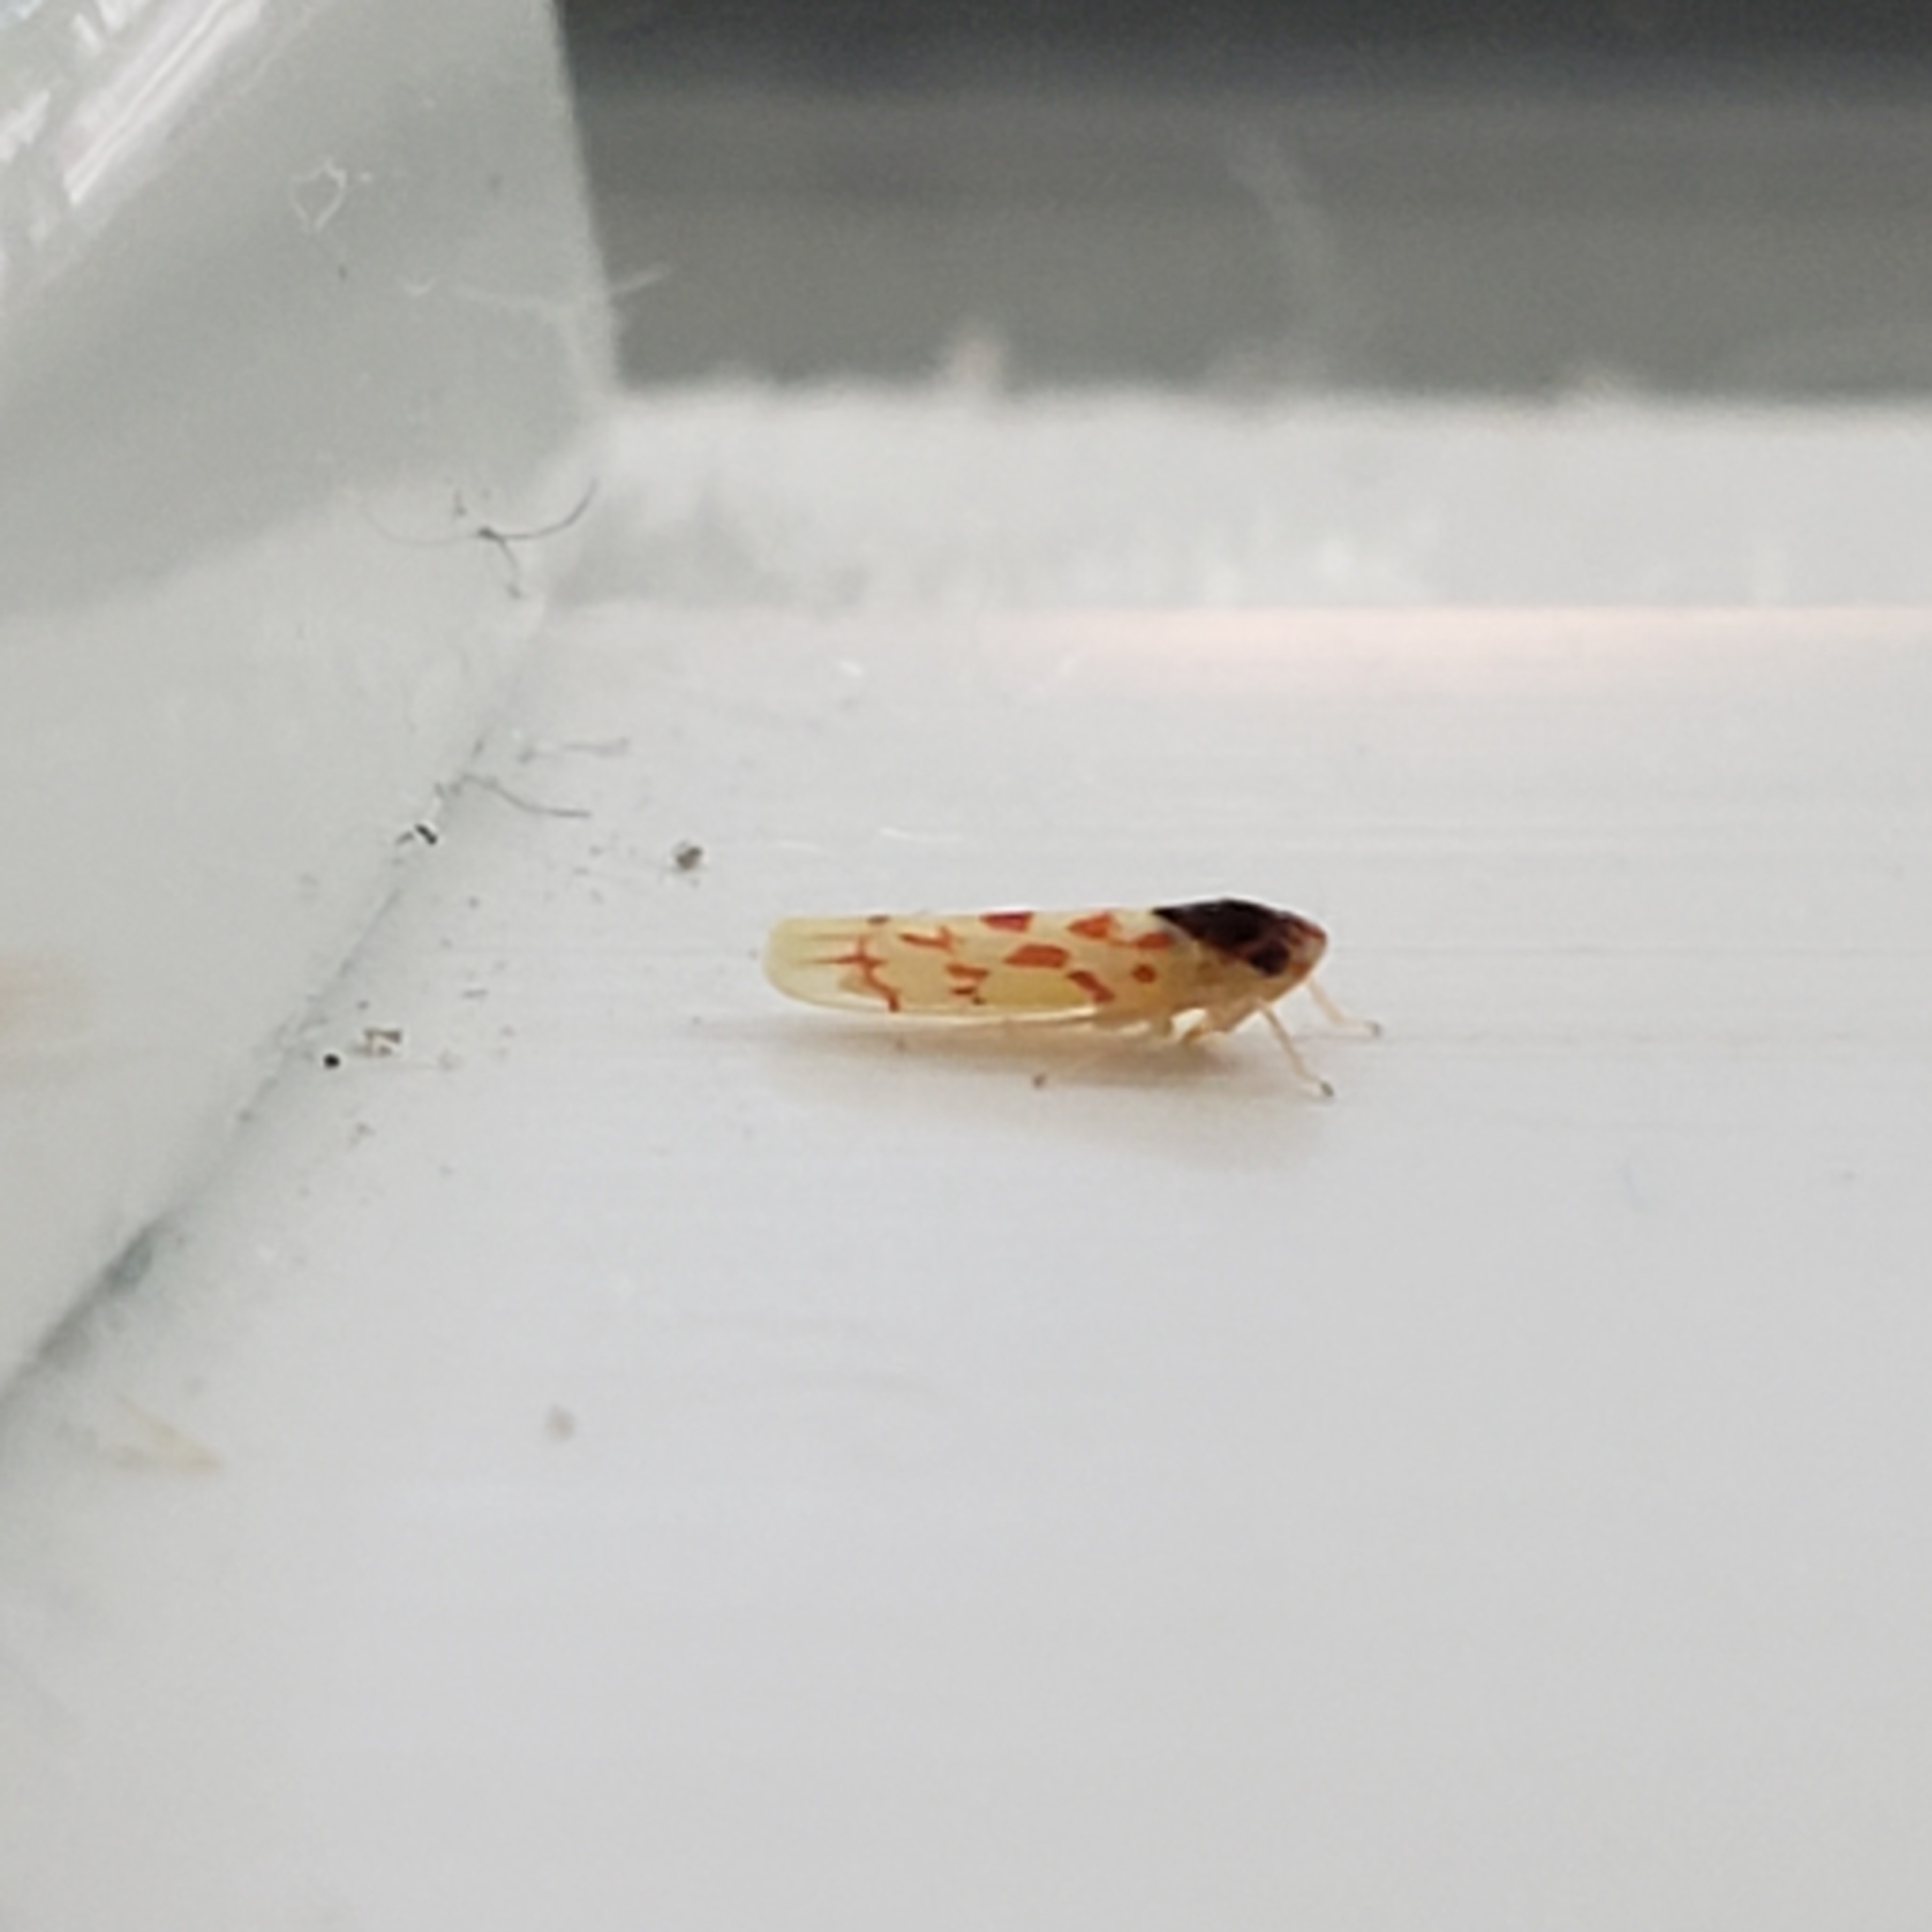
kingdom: Animalia
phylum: Arthropoda
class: Insecta
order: Hemiptera
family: Cicadellidae
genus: Eratoneura
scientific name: Eratoneura ardens
